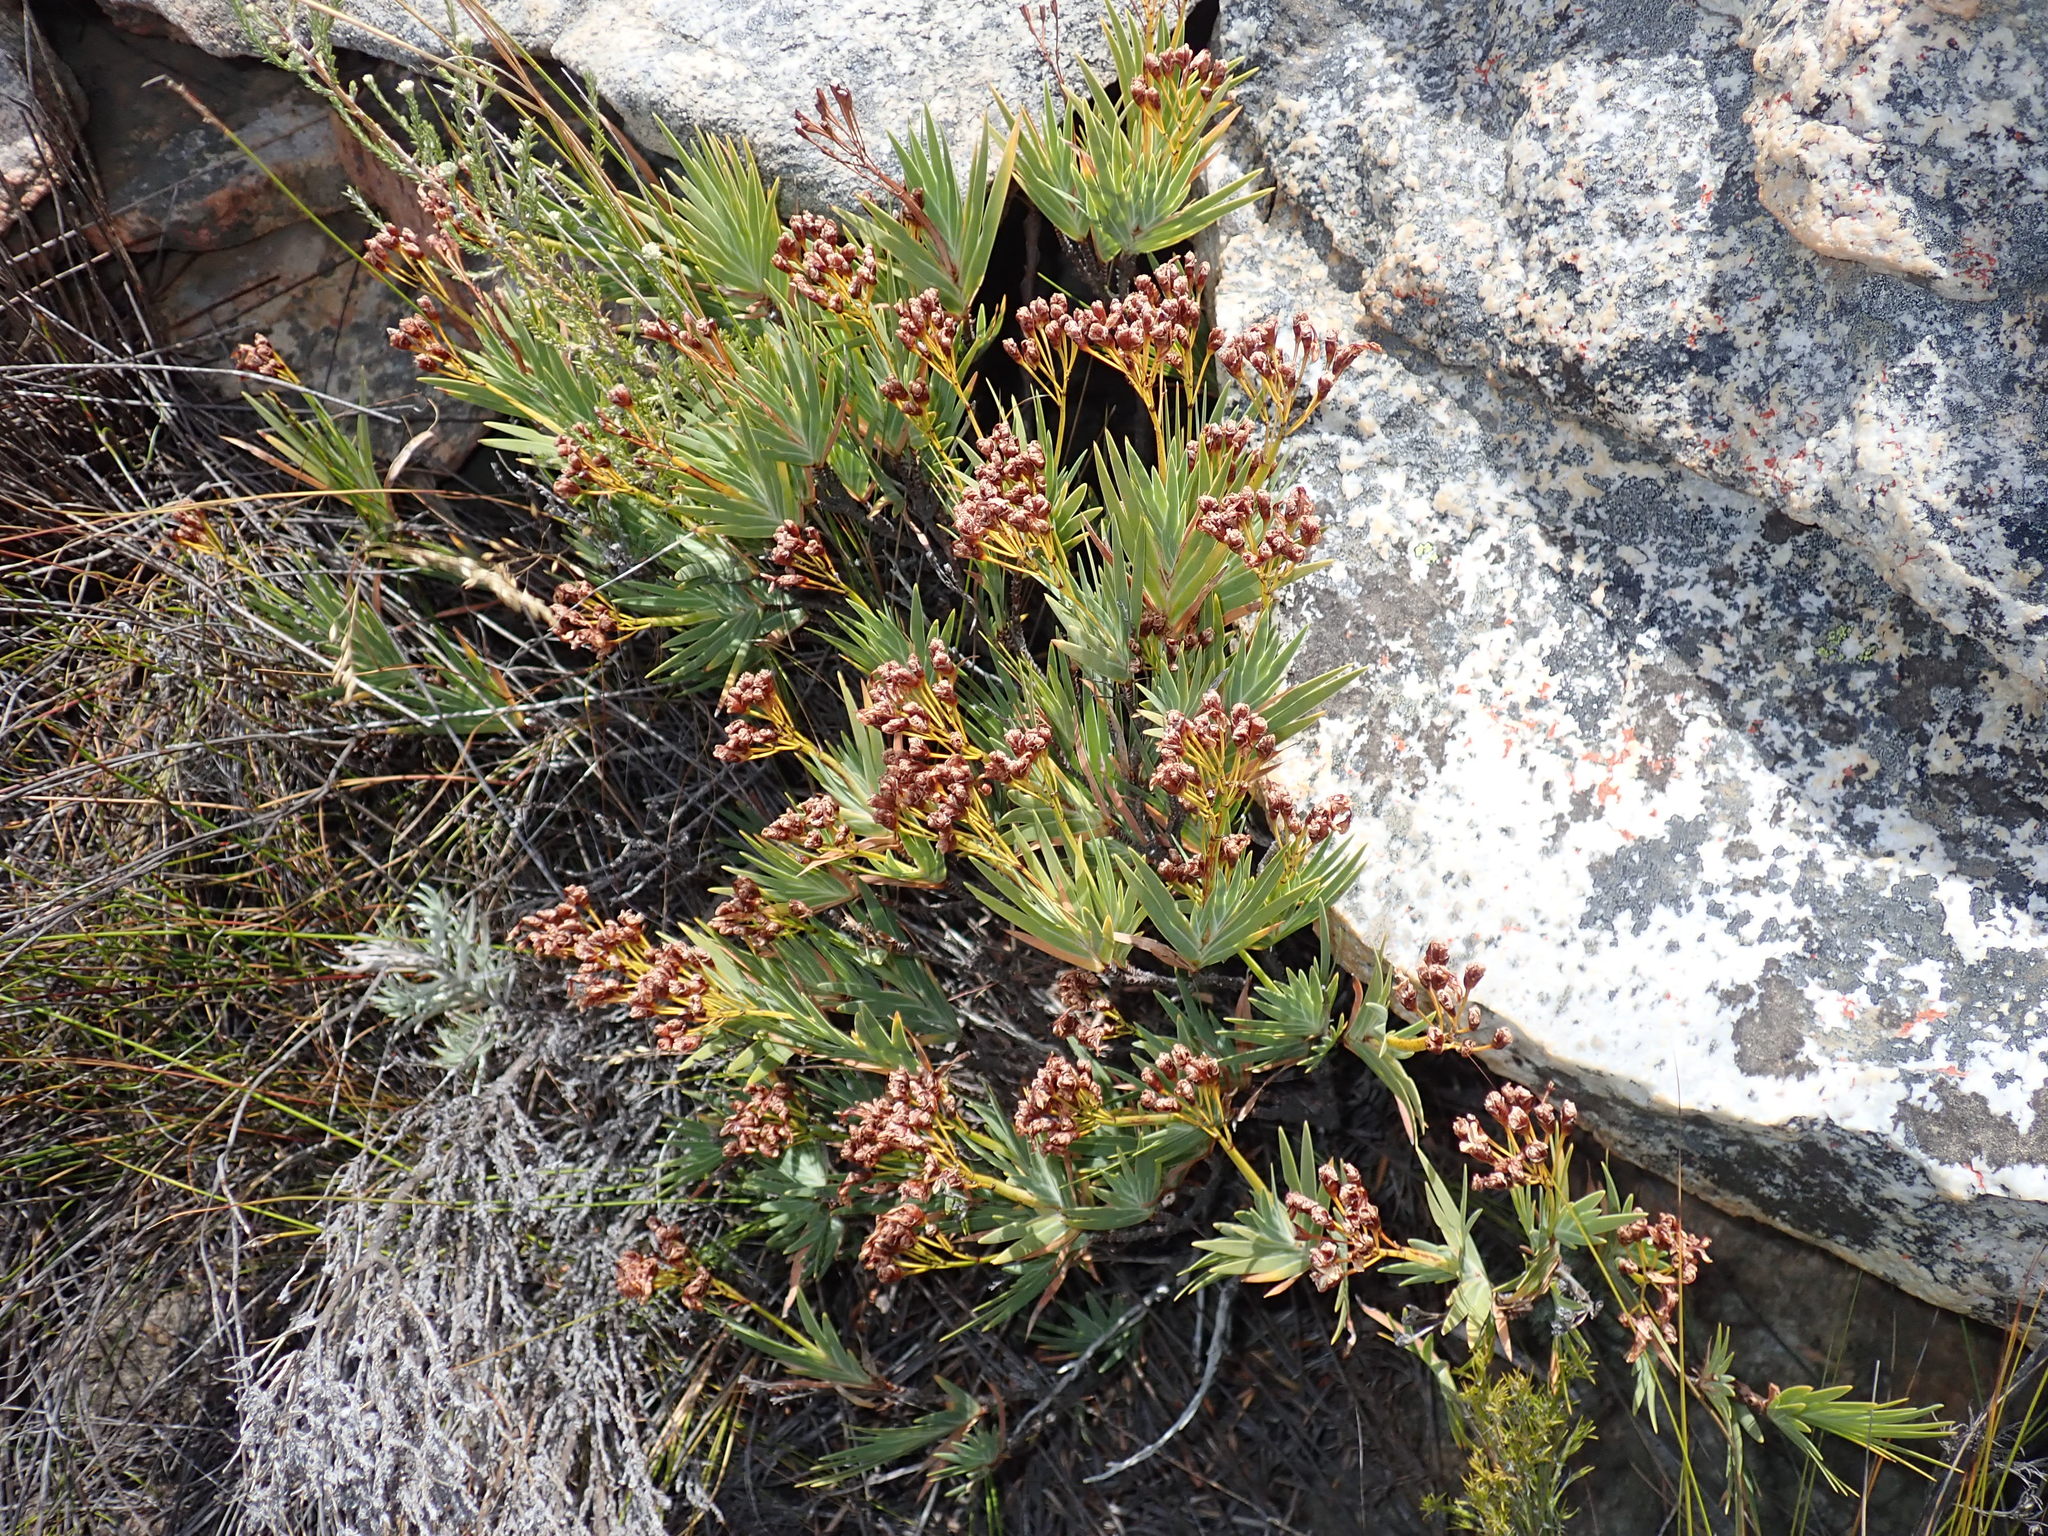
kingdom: Plantae
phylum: Tracheophyta
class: Liliopsida
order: Asparagales
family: Iridaceae
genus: Nivenia
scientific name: Nivenia binata
